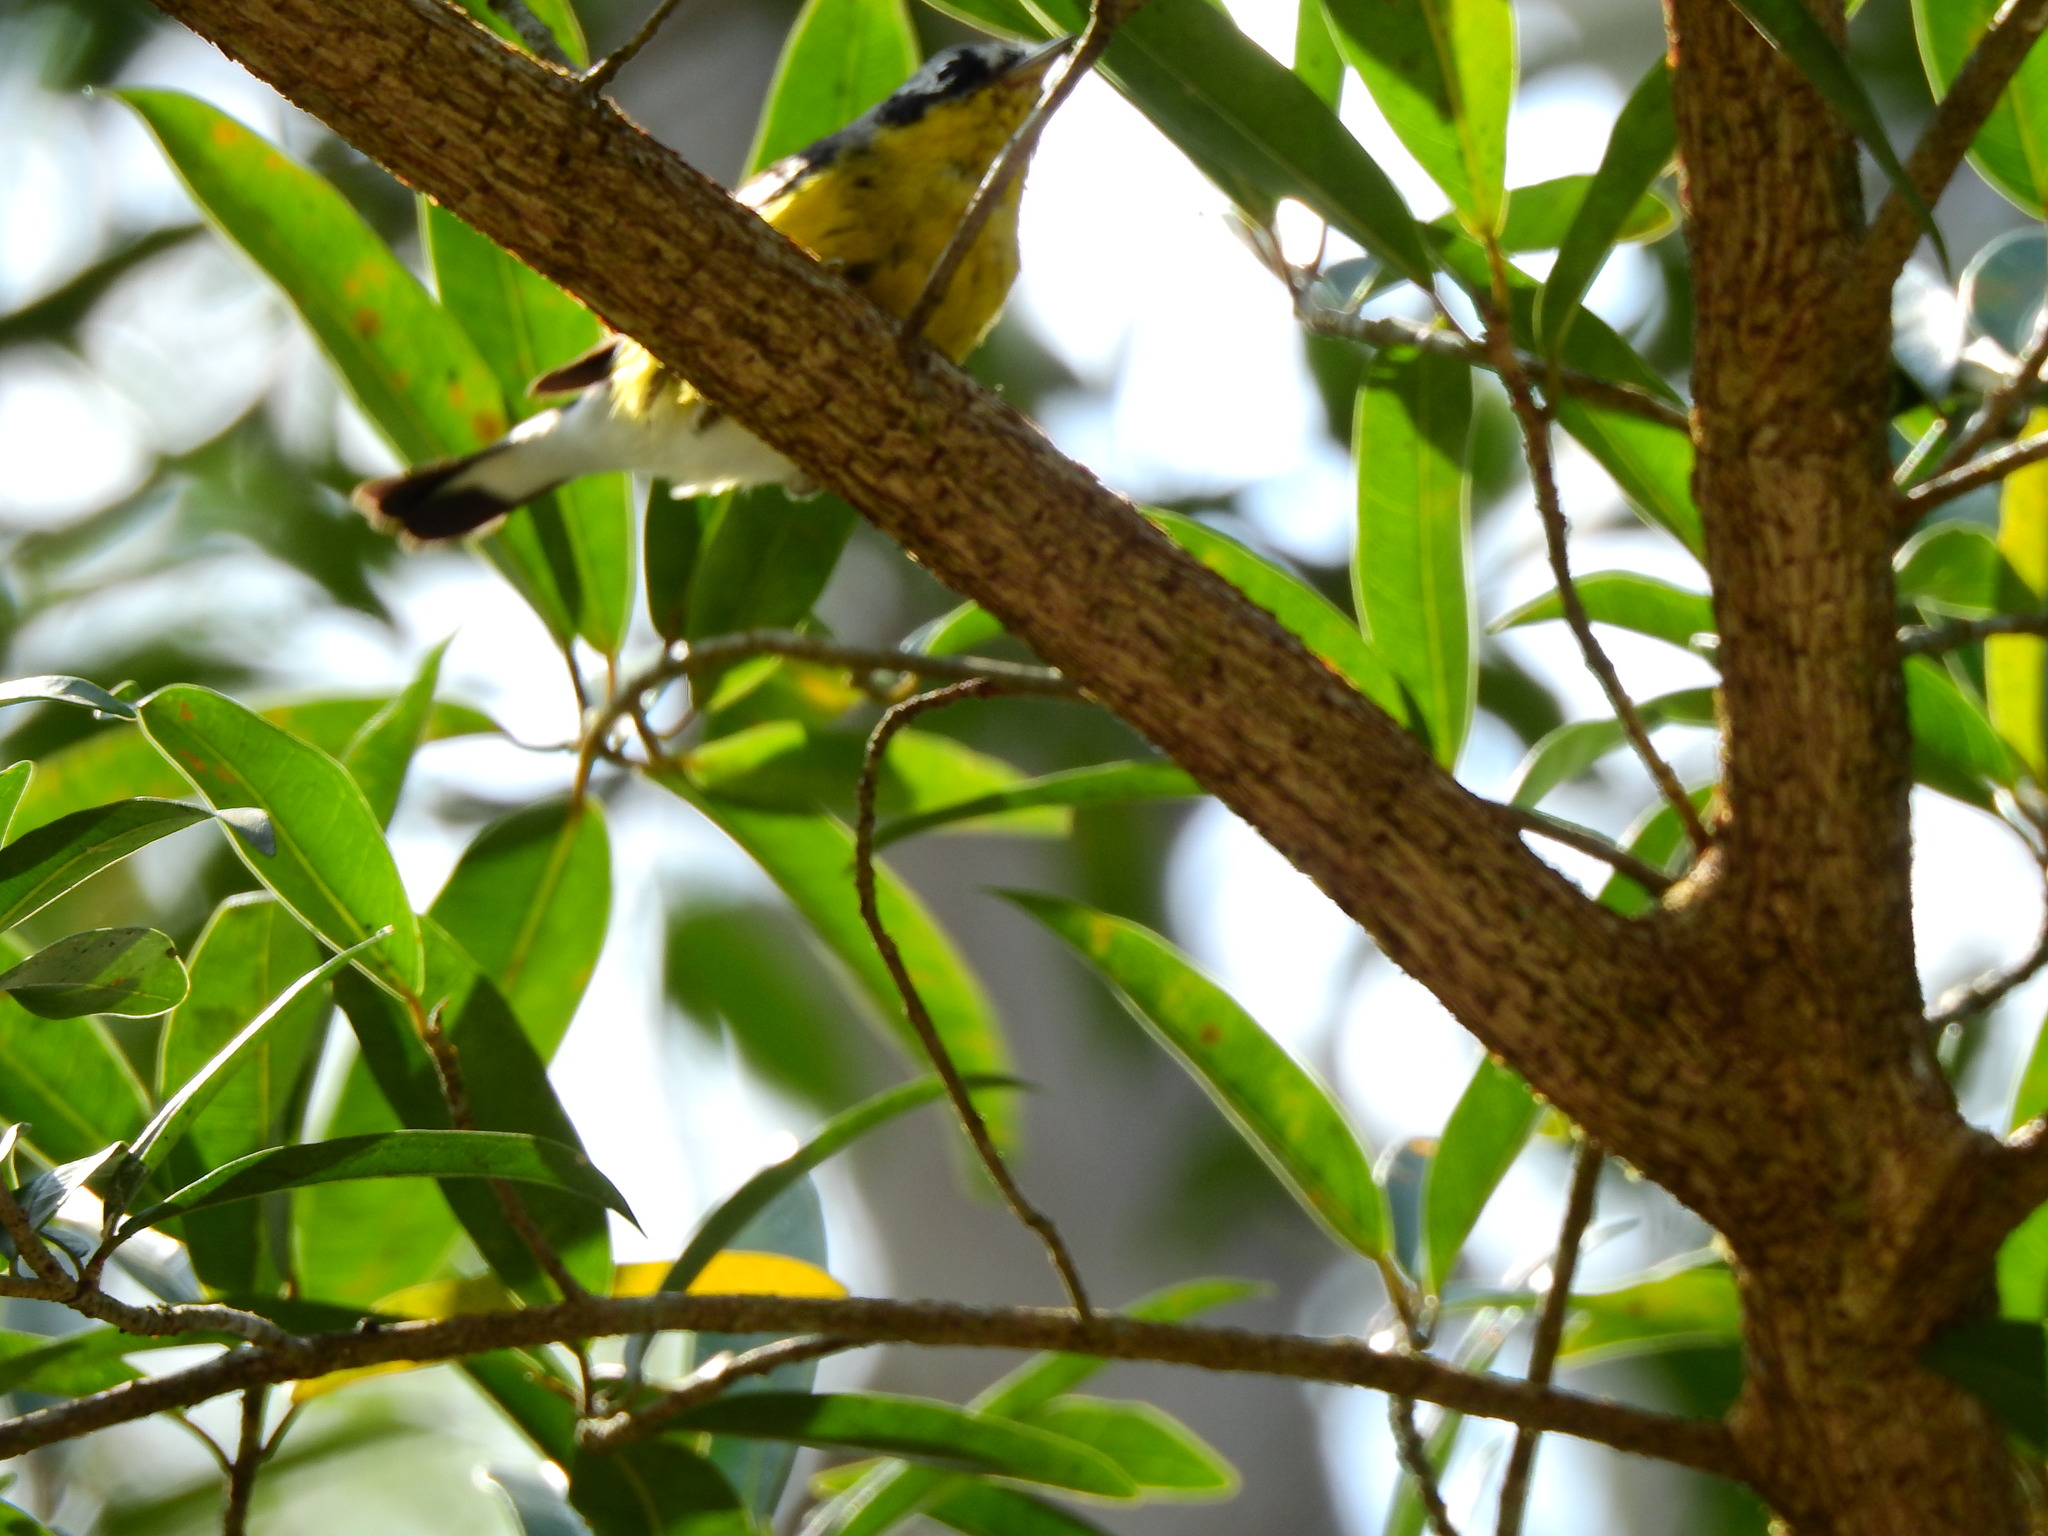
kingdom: Animalia
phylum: Chordata
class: Aves
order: Passeriformes
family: Parulidae
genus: Setophaga
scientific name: Setophaga magnolia
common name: Magnolia warbler
